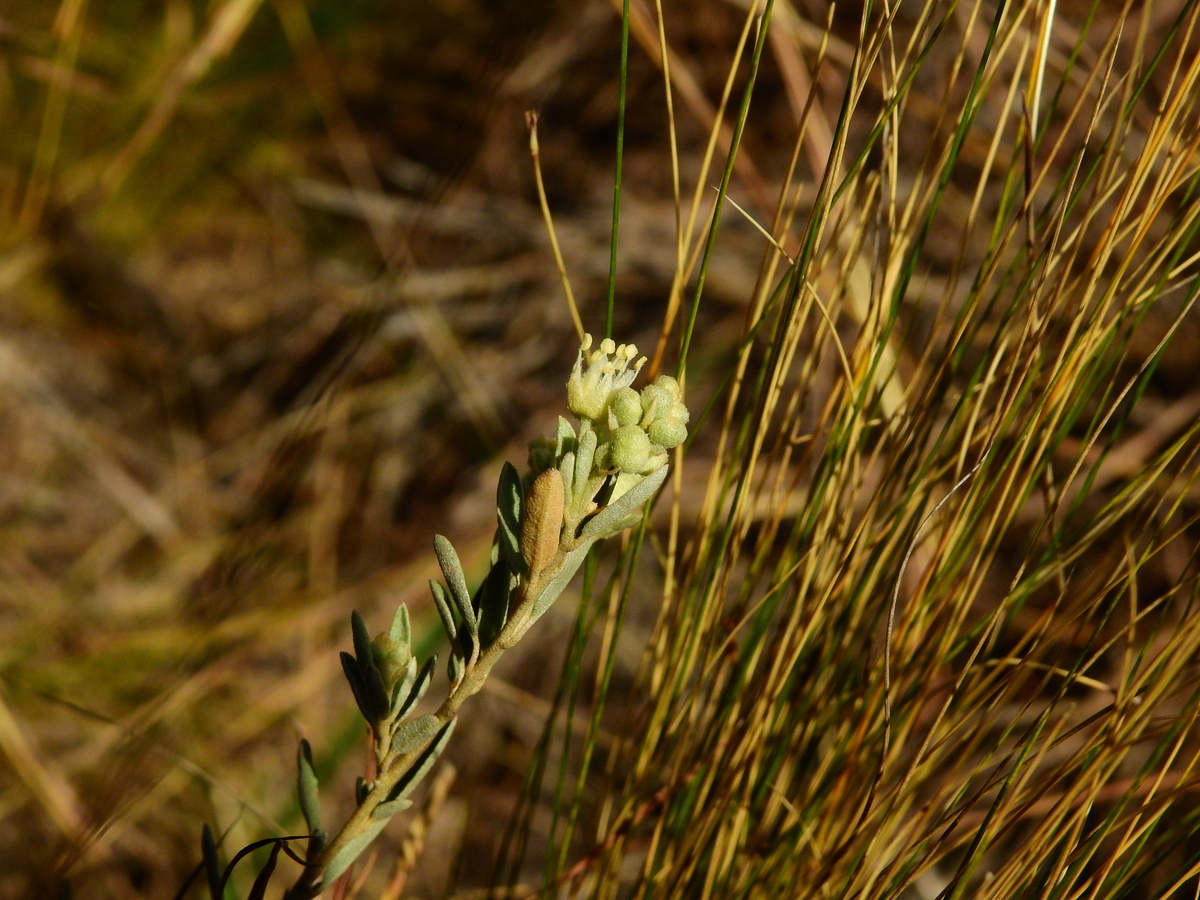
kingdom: Plantae
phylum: Tracheophyta
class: Magnoliopsida
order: Malpighiales
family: Euphorbiaceae
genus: Croton
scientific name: Croton parvifolius
